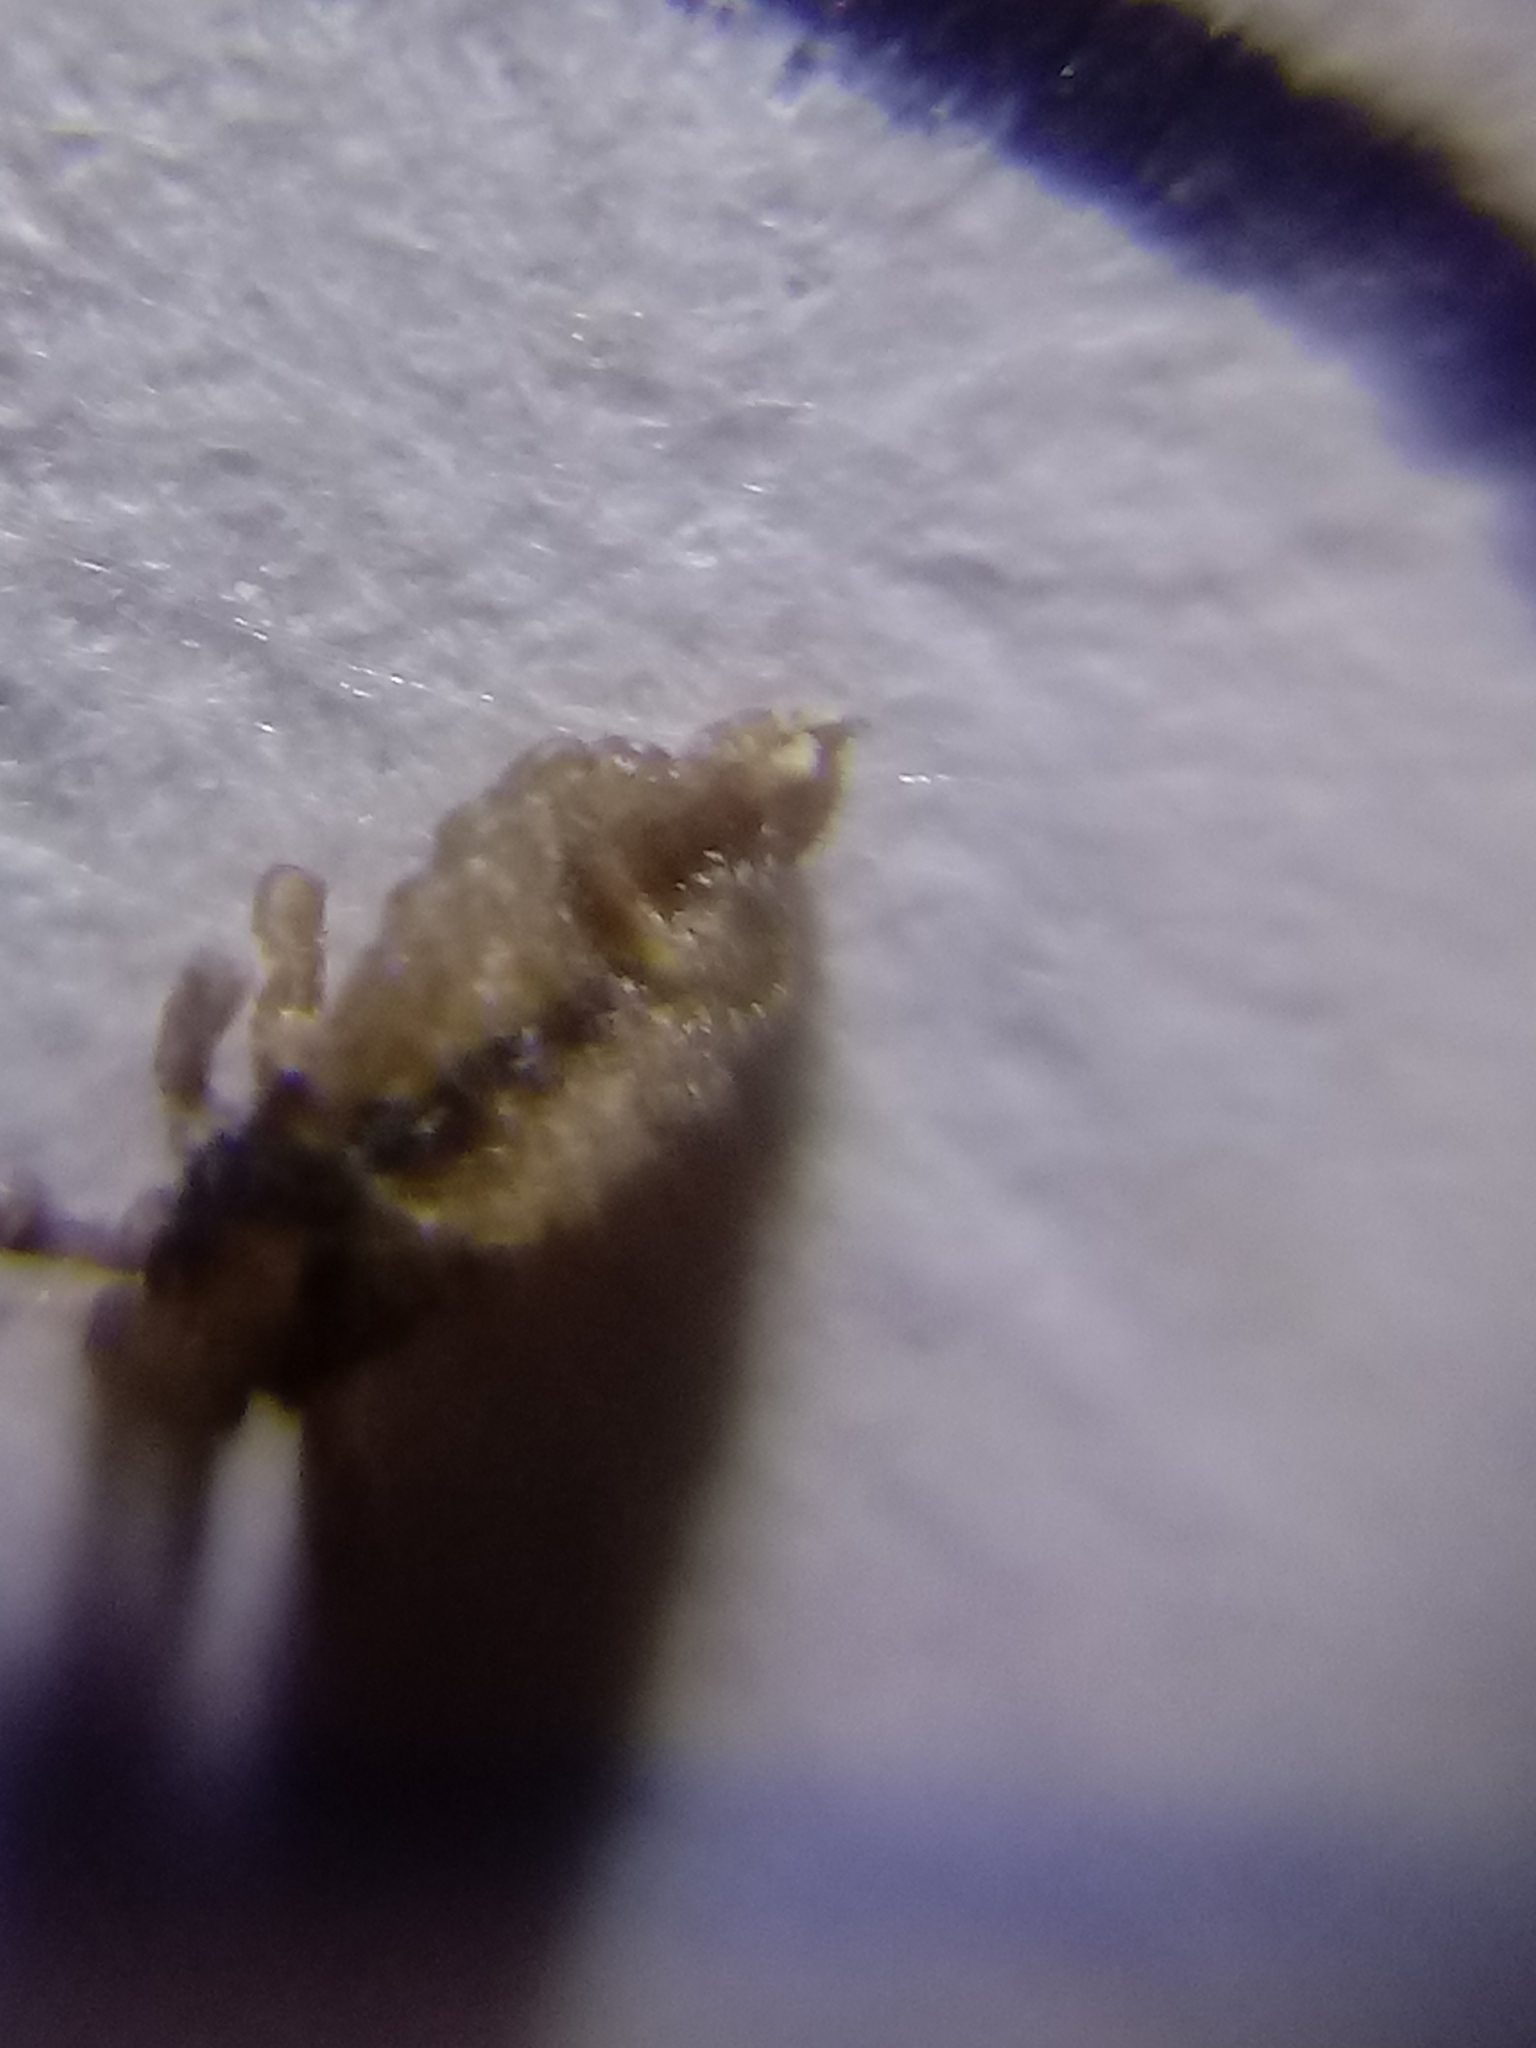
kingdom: Animalia
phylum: Arthropoda
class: Insecta
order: Psocodea
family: Pediculidae
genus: Pediculus
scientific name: Pediculus humanus
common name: Body louse
